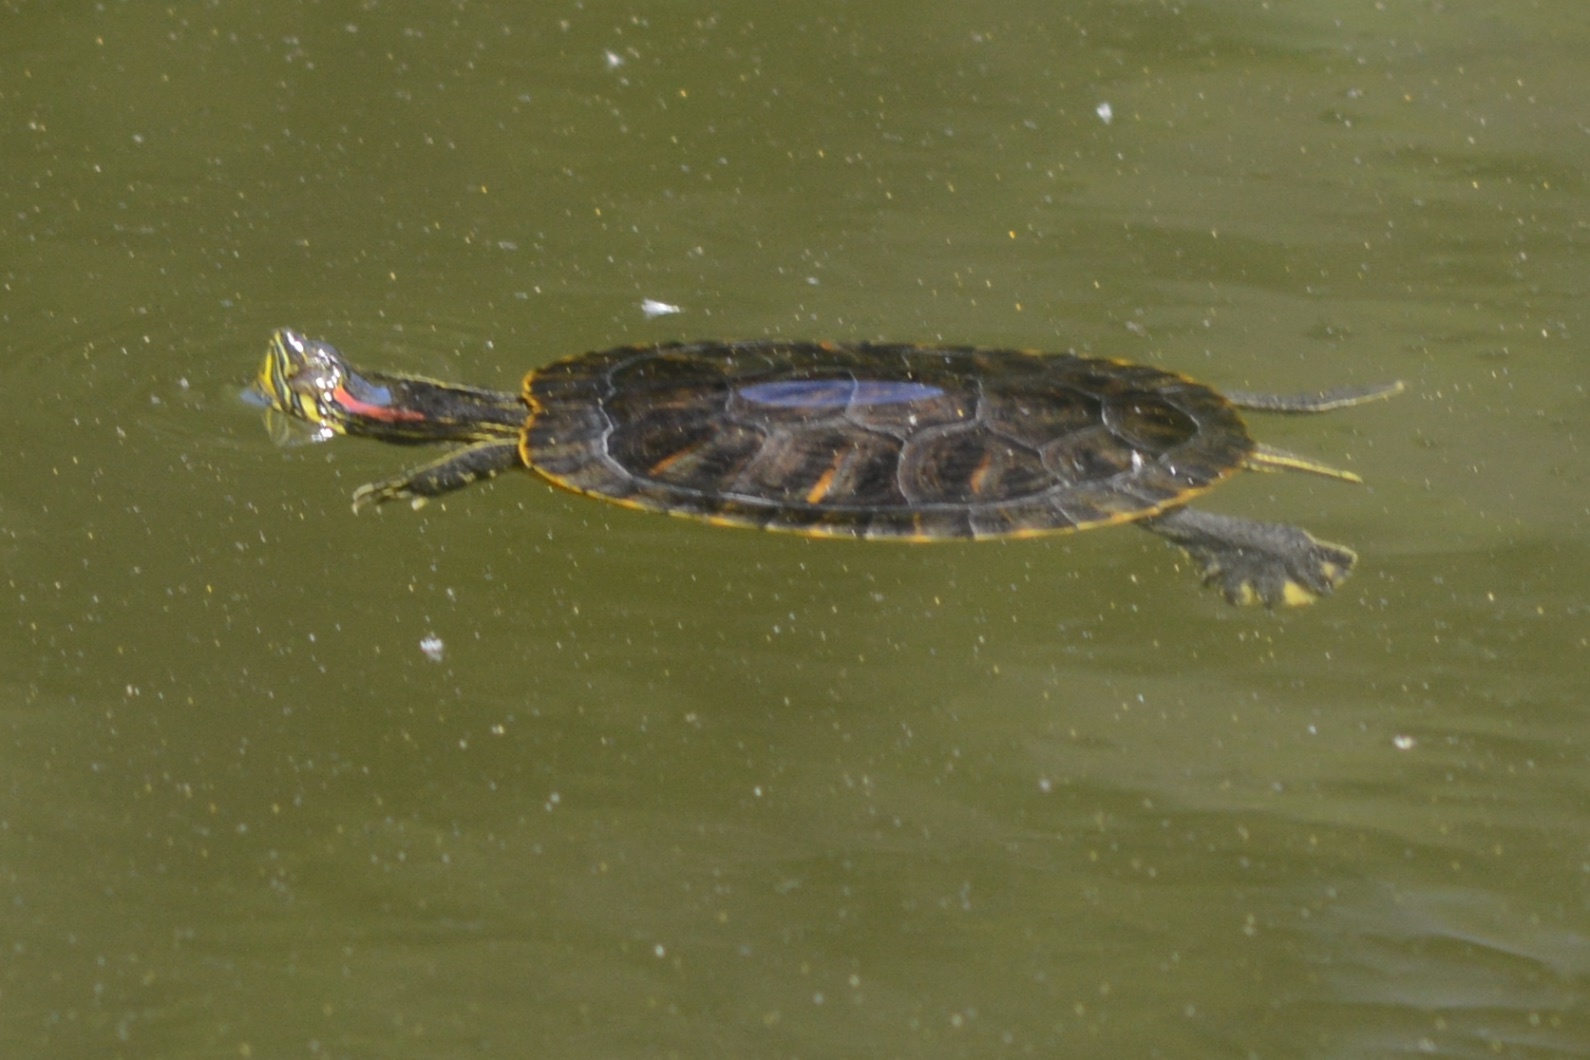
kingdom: Animalia
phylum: Chordata
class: Testudines
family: Emydidae
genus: Trachemys
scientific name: Trachemys scripta
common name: Slider
